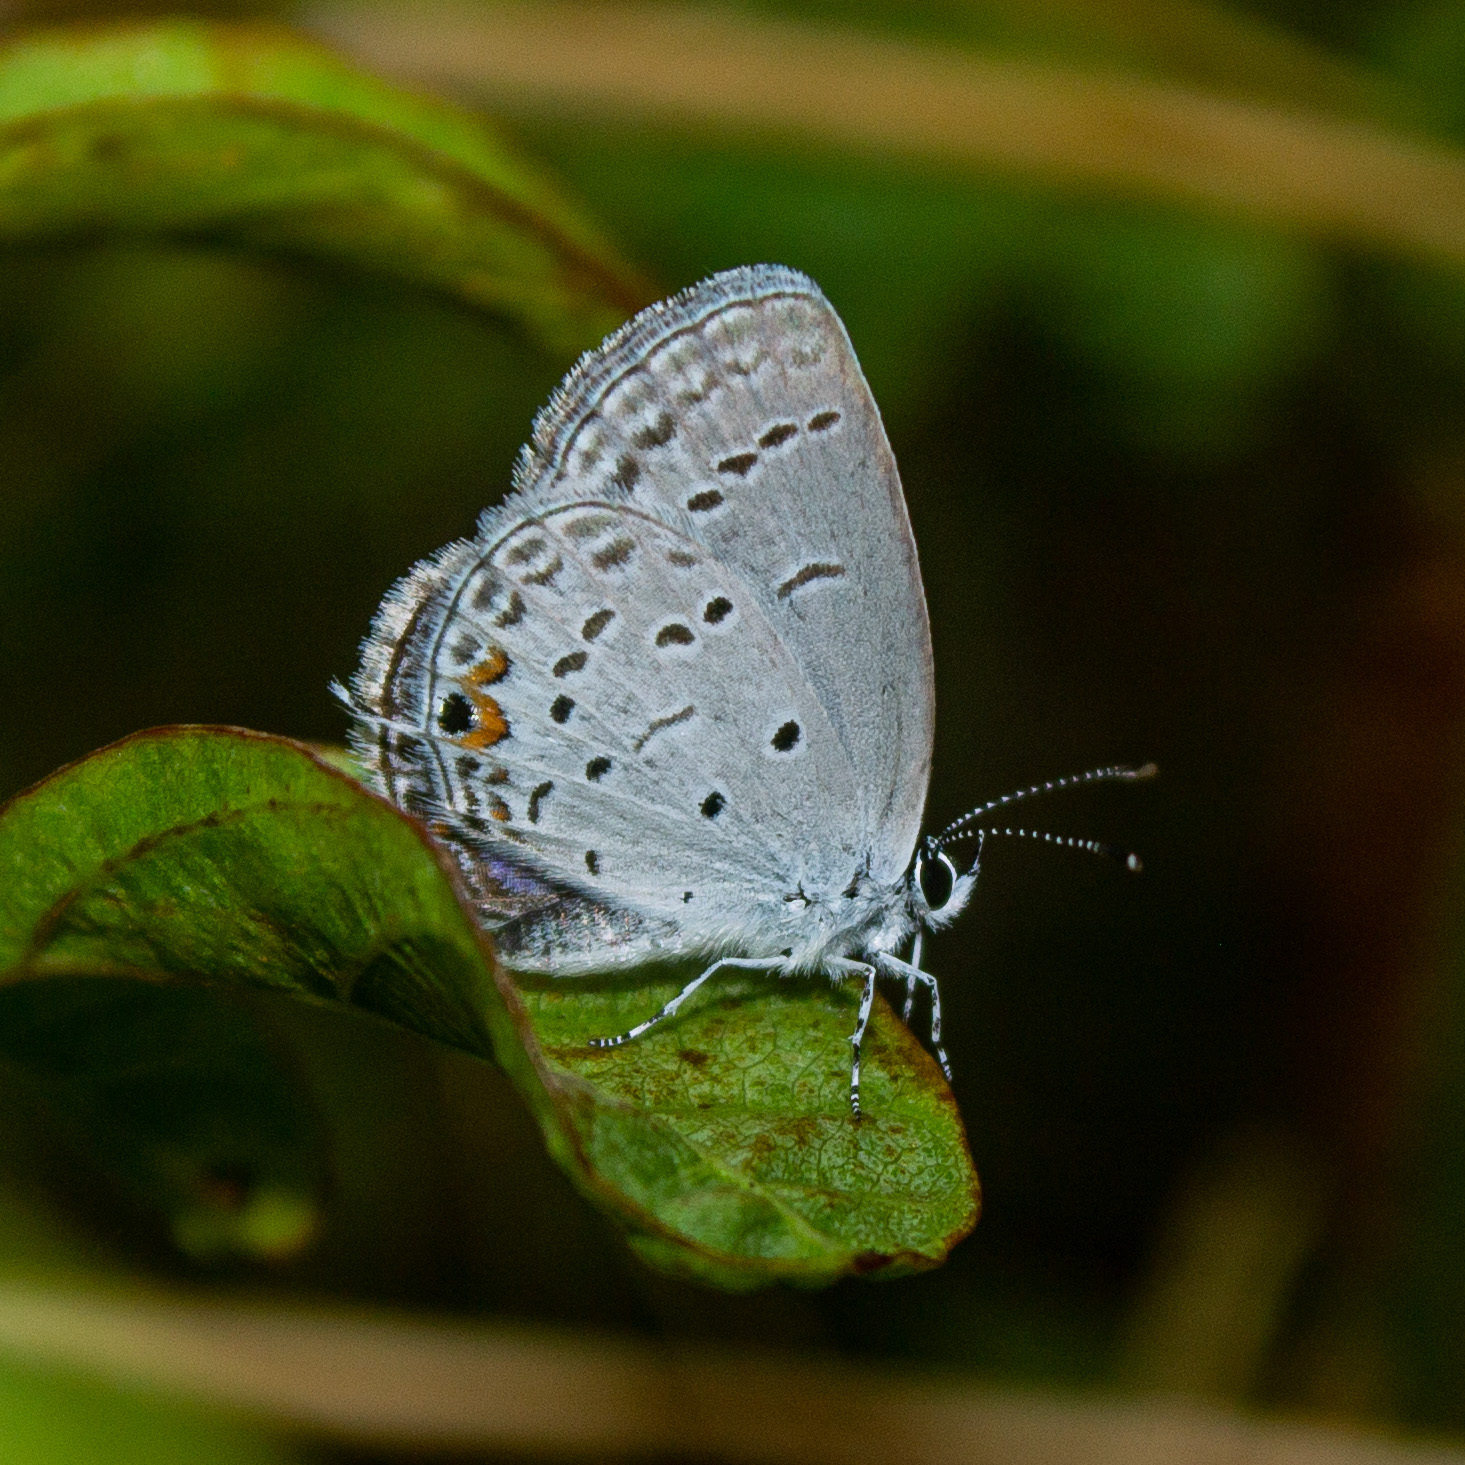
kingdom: Animalia
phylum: Arthropoda
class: Insecta
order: Lepidoptera
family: Lycaenidae
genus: Elkalyce
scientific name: Elkalyce comyntas
